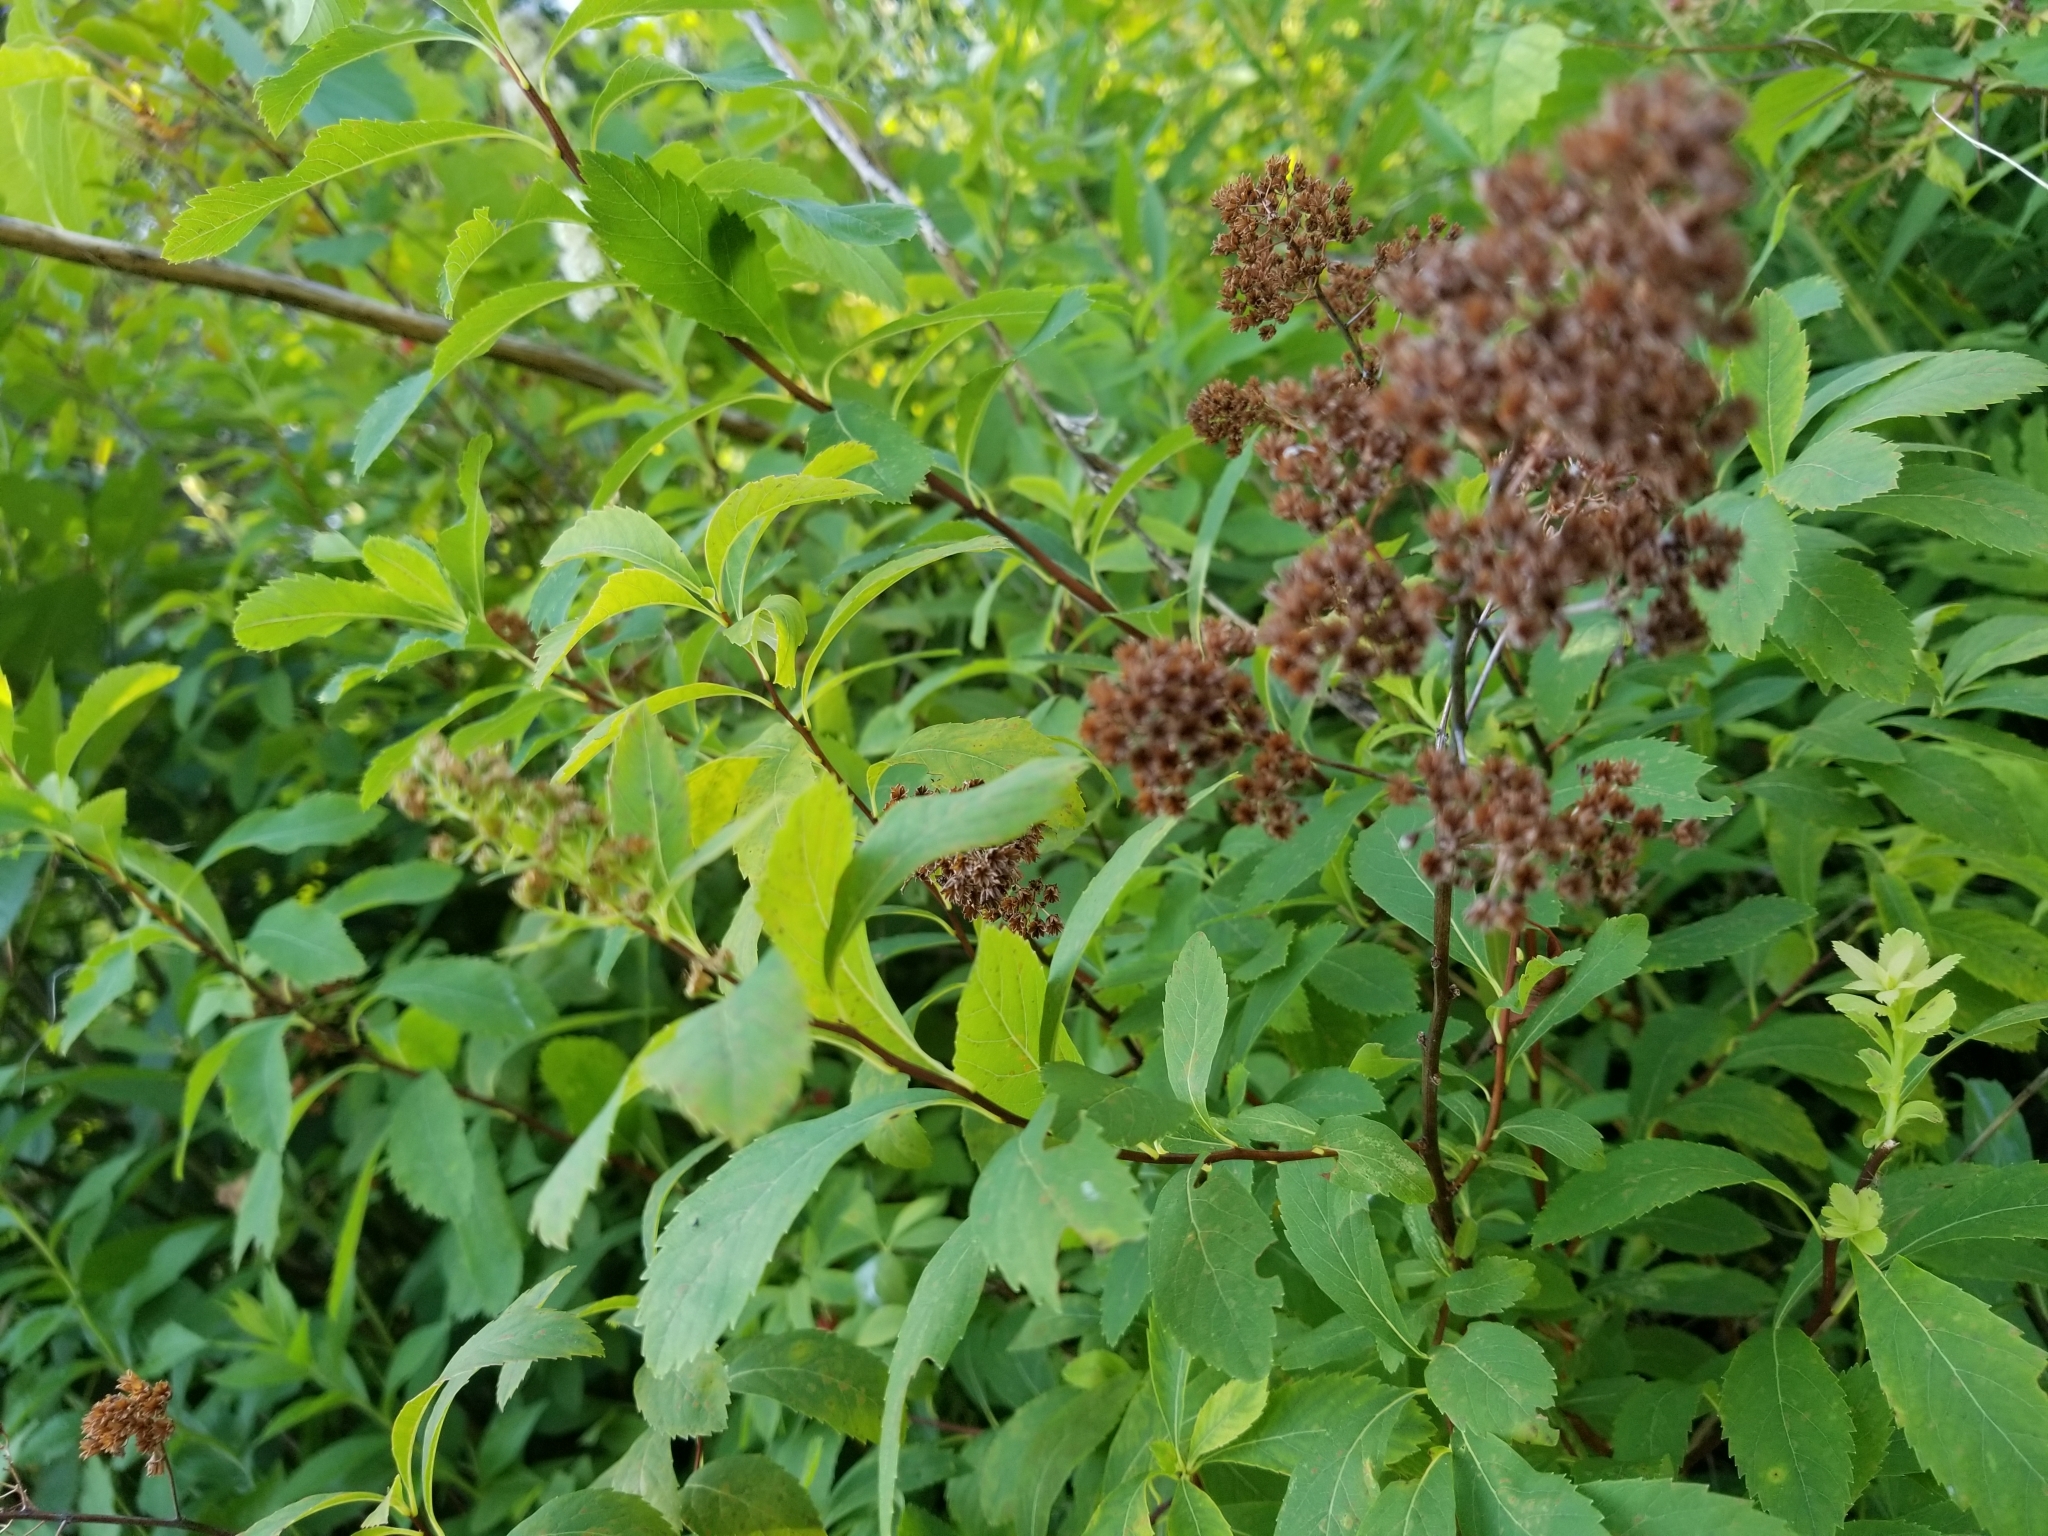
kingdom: Plantae
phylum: Tracheophyta
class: Magnoliopsida
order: Rosales
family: Rosaceae
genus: Spiraea
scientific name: Spiraea alba
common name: Pale bridewort
